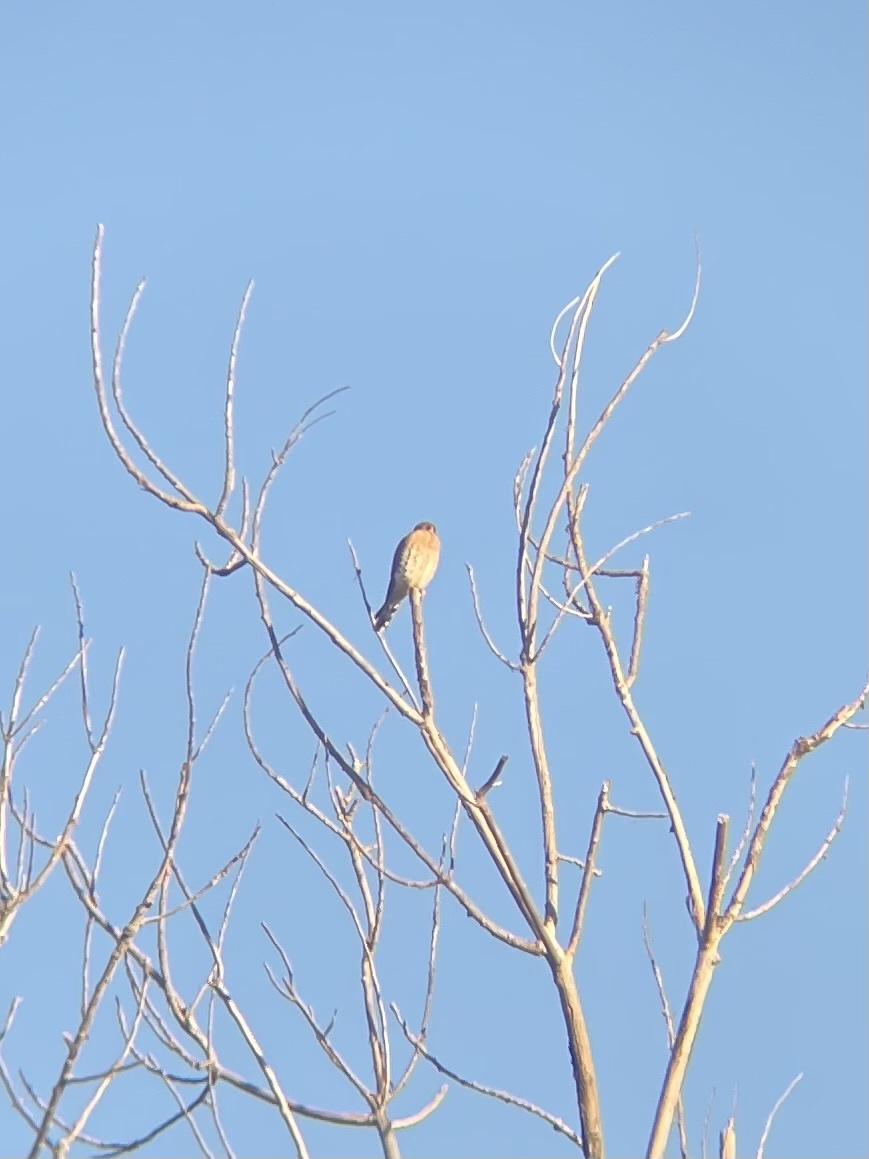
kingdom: Animalia
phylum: Chordata
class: Aves
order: Falconiformes
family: Falconidae
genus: Falco
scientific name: Falco sparverius
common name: American kestrel
